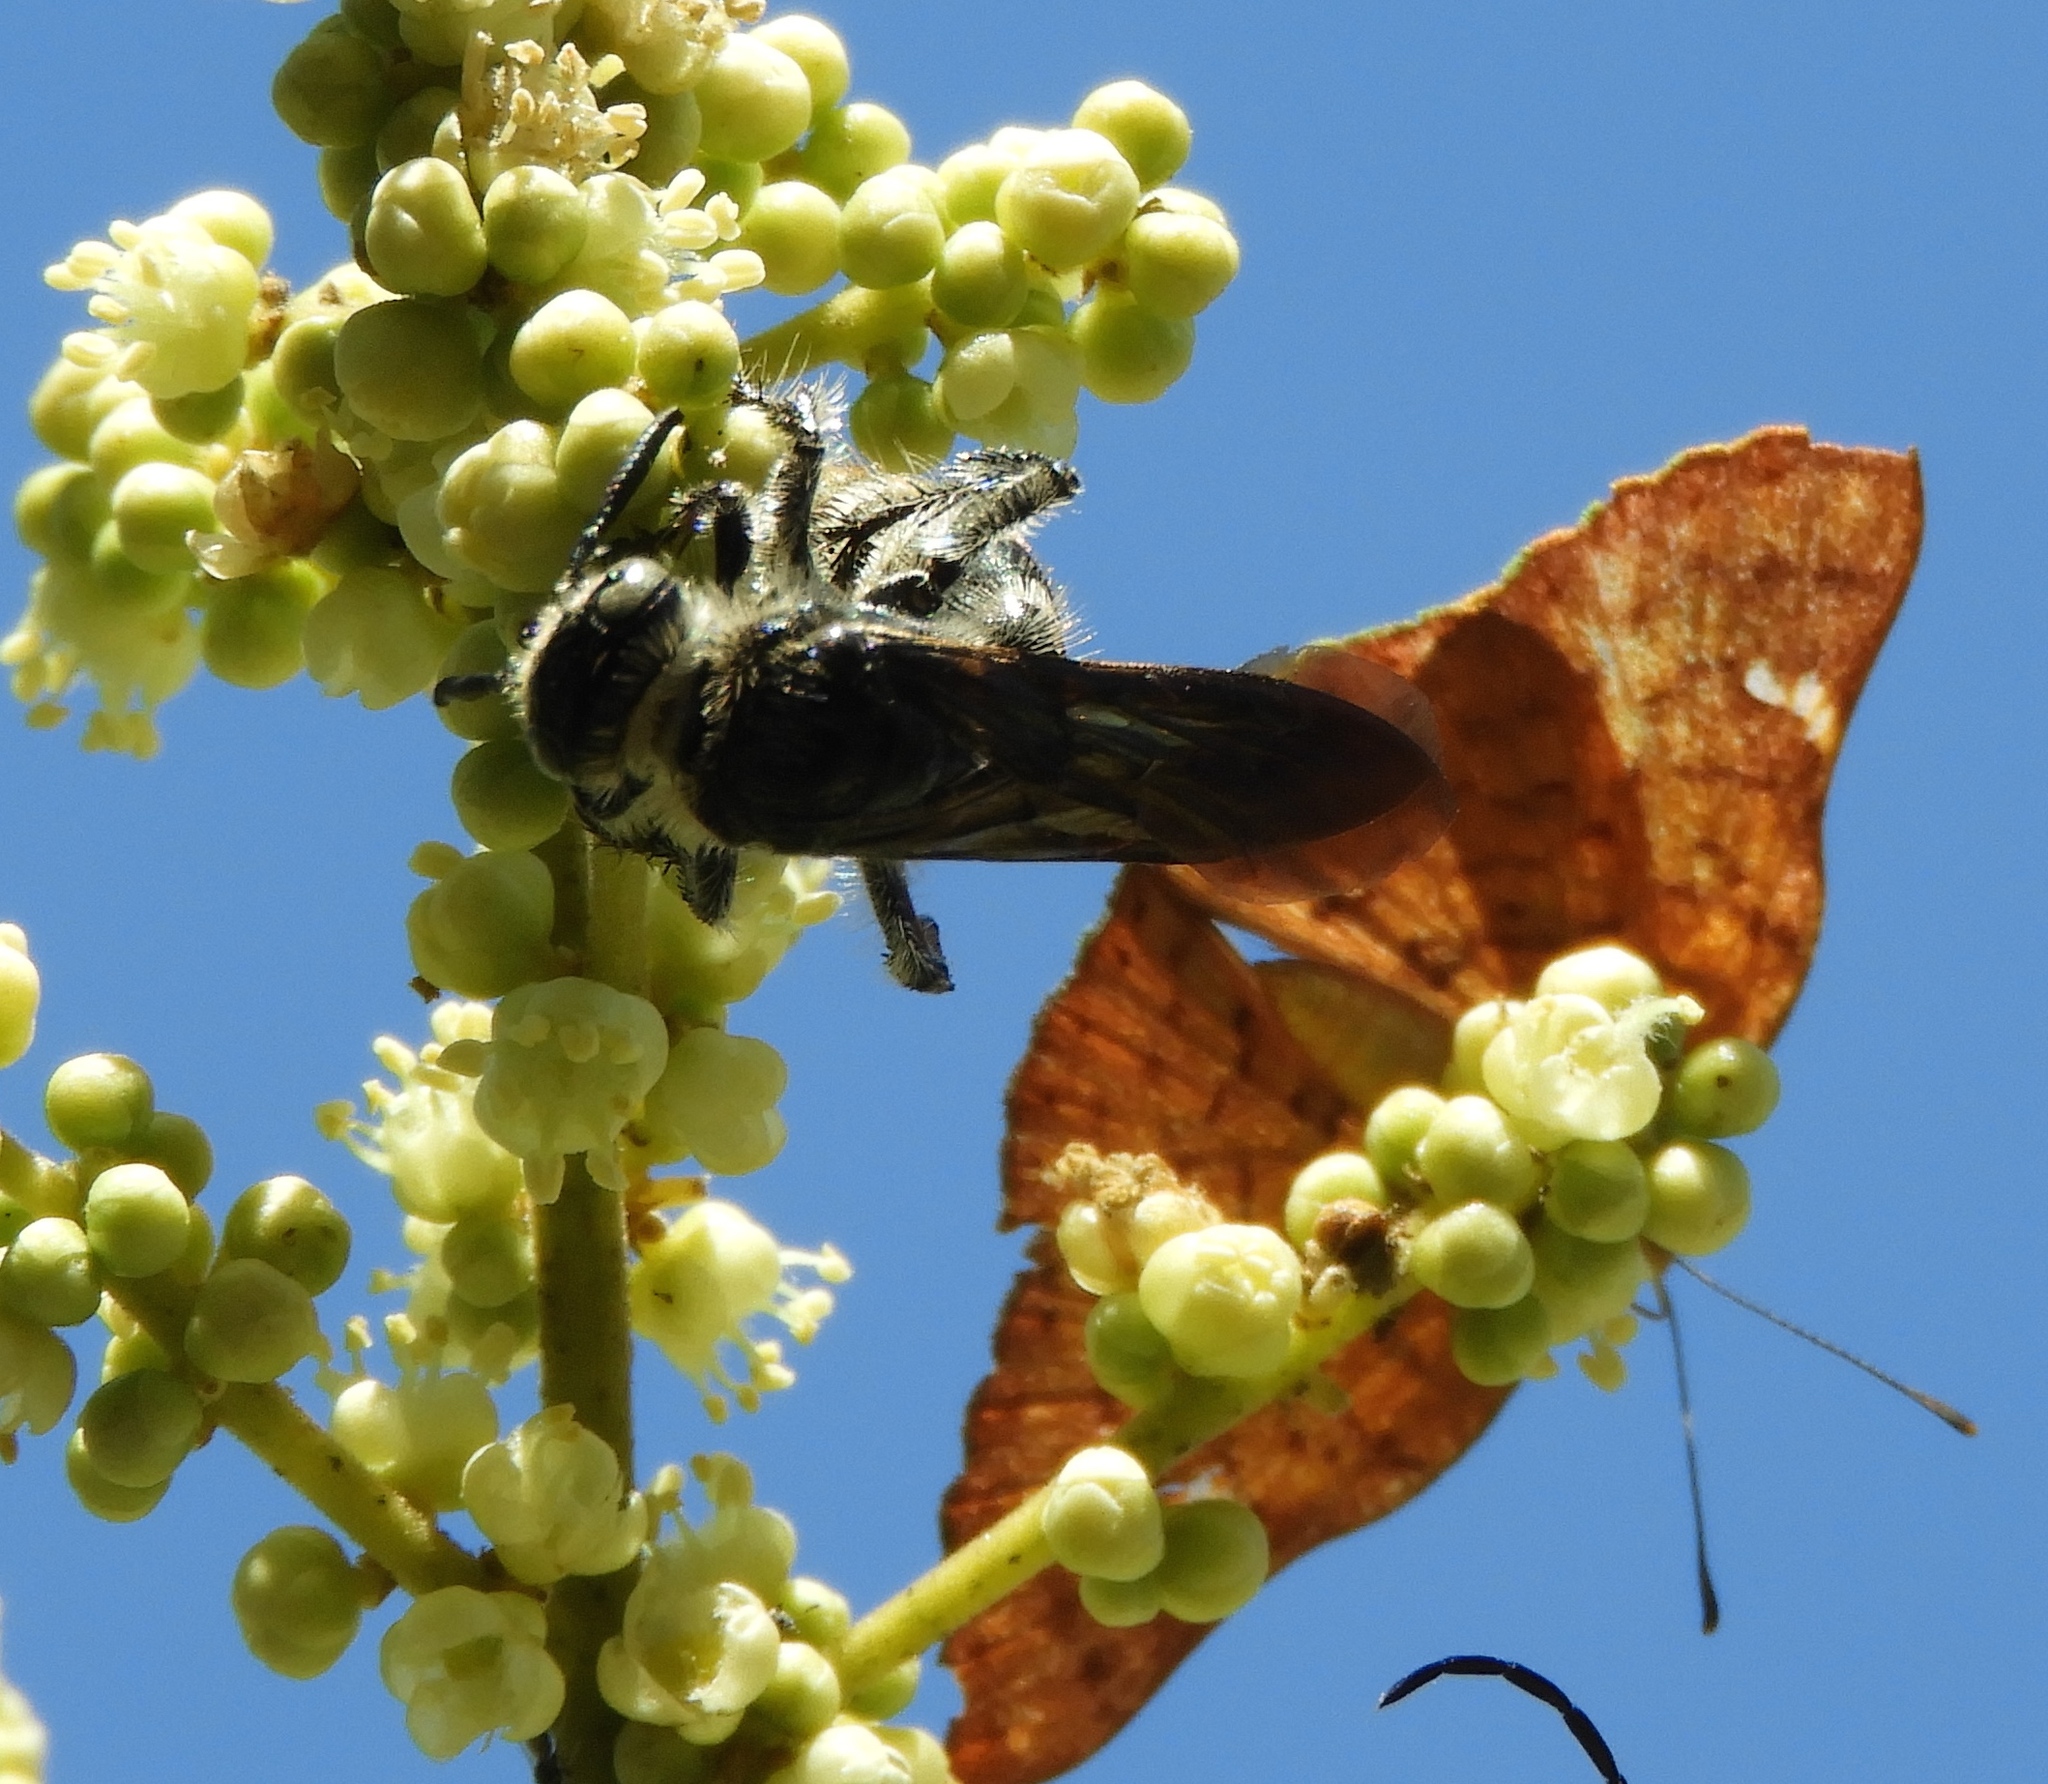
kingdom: Animalia
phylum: Arthropoda
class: Insecta
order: Hymenoptera
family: Scoliidae
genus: Dielis
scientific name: Dielis tolteca
